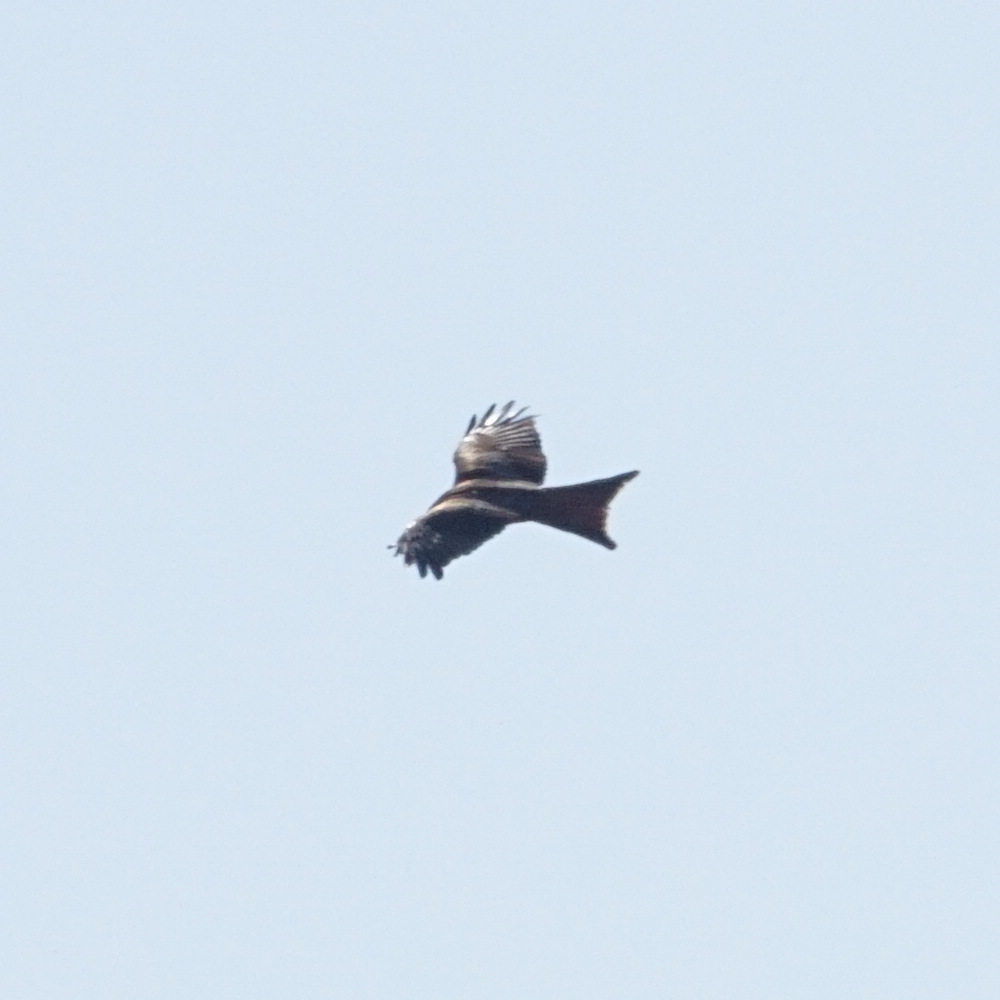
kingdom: Animalia
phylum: Chordata
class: Aves
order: Accipitriformes
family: Accipitridae
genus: Milvus
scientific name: Milvus milvus
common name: Red kite
